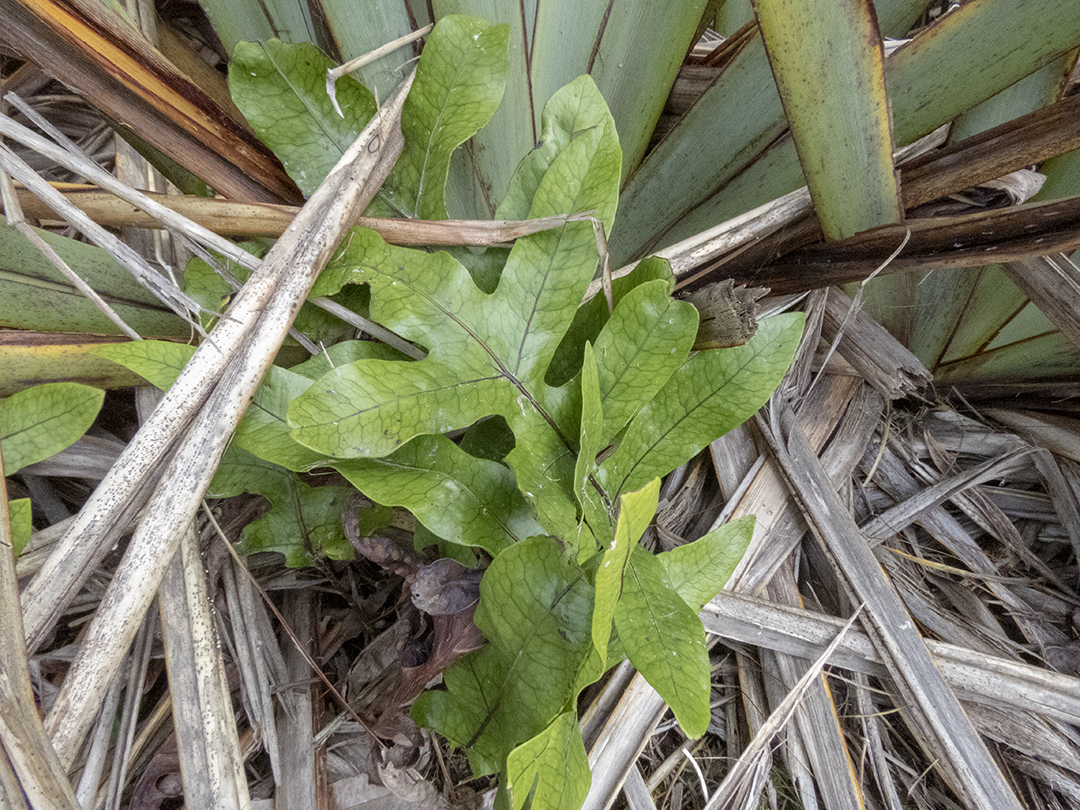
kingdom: Plantae
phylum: Tracheophyta
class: Polypodiopsida
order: Polypodiales
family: Polypodiaceae
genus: Lecanopteris
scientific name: Lecanopteris pustulata
